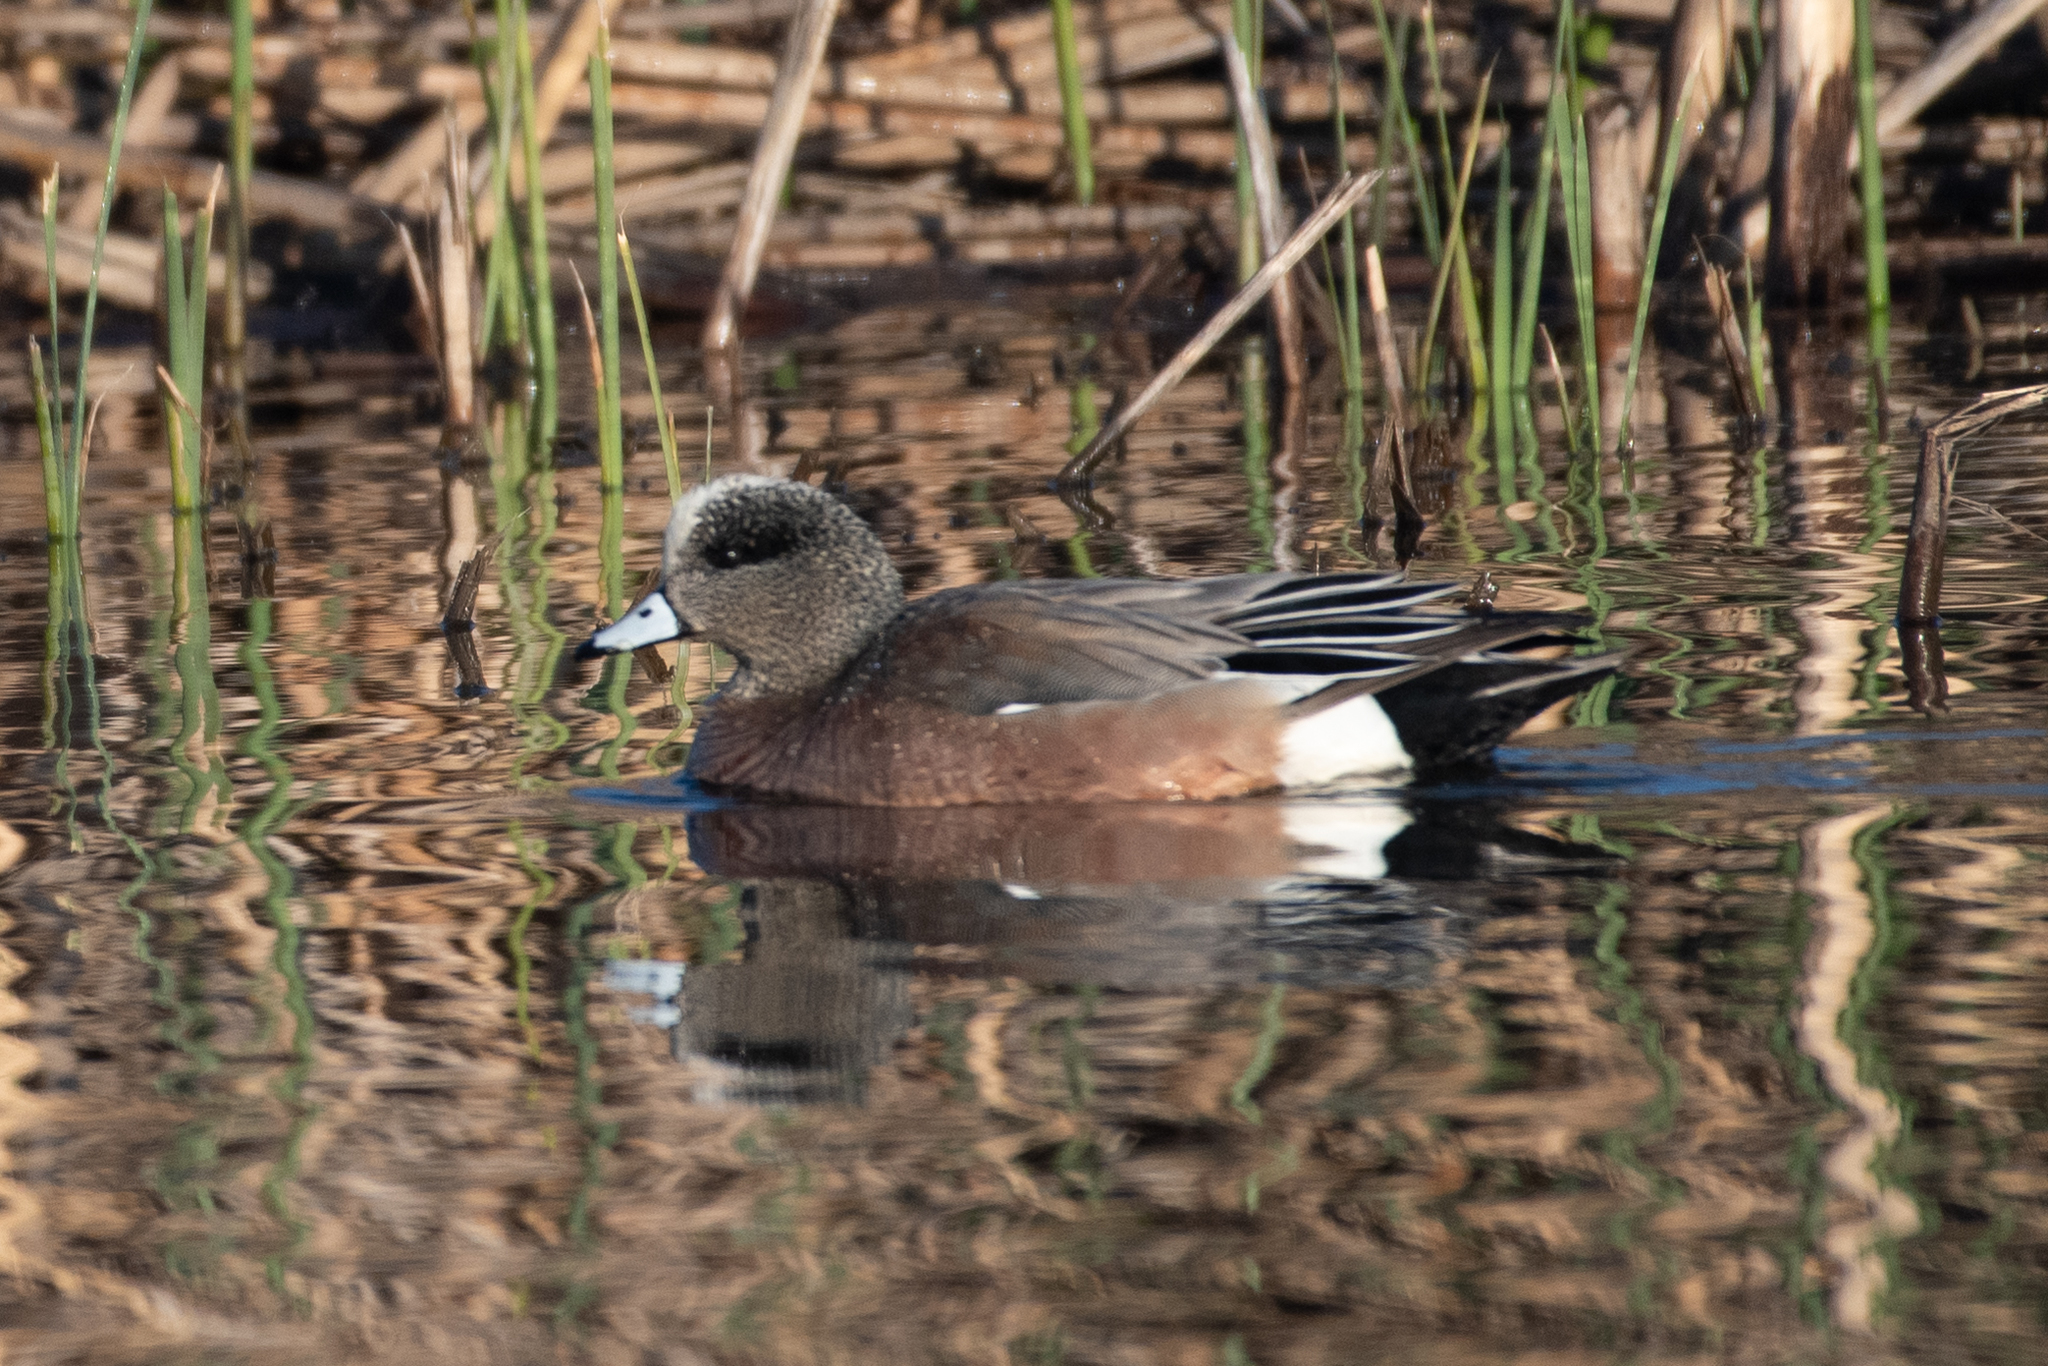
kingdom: Animalia
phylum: Chordata
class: Aves
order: Anseriformes
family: Anatidae
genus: Mareca
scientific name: Mareca americana
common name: American wigeon
